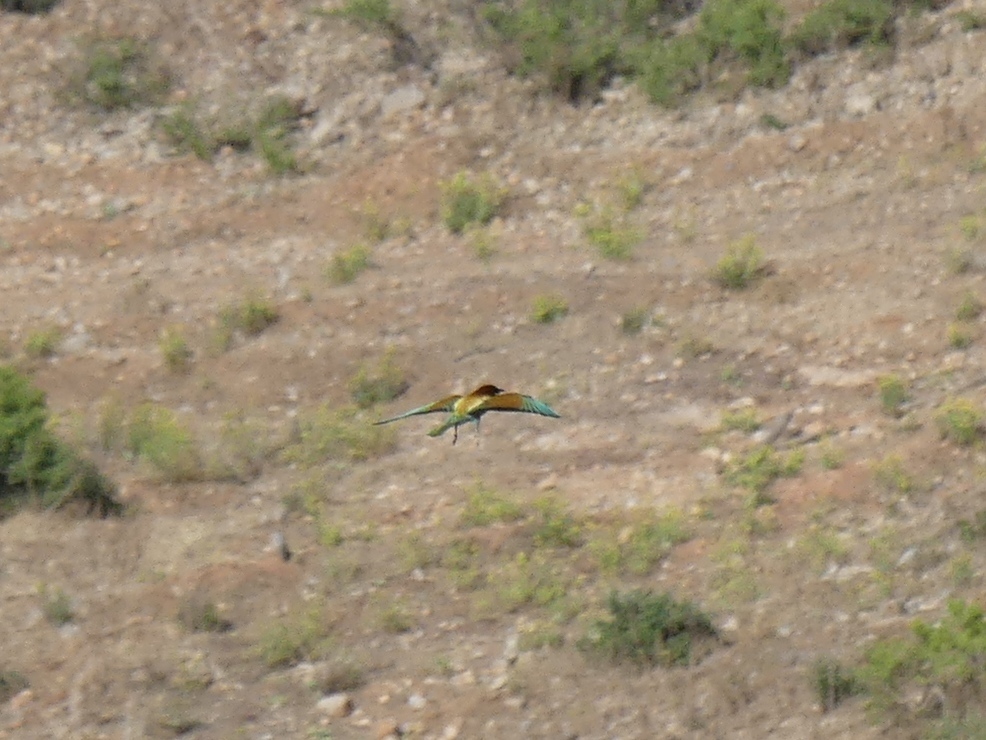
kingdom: Animalia
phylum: Chordata
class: Aves
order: Coraciiformes
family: Meropidae
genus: Merops
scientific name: Merops apiaster
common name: European bee-eater
